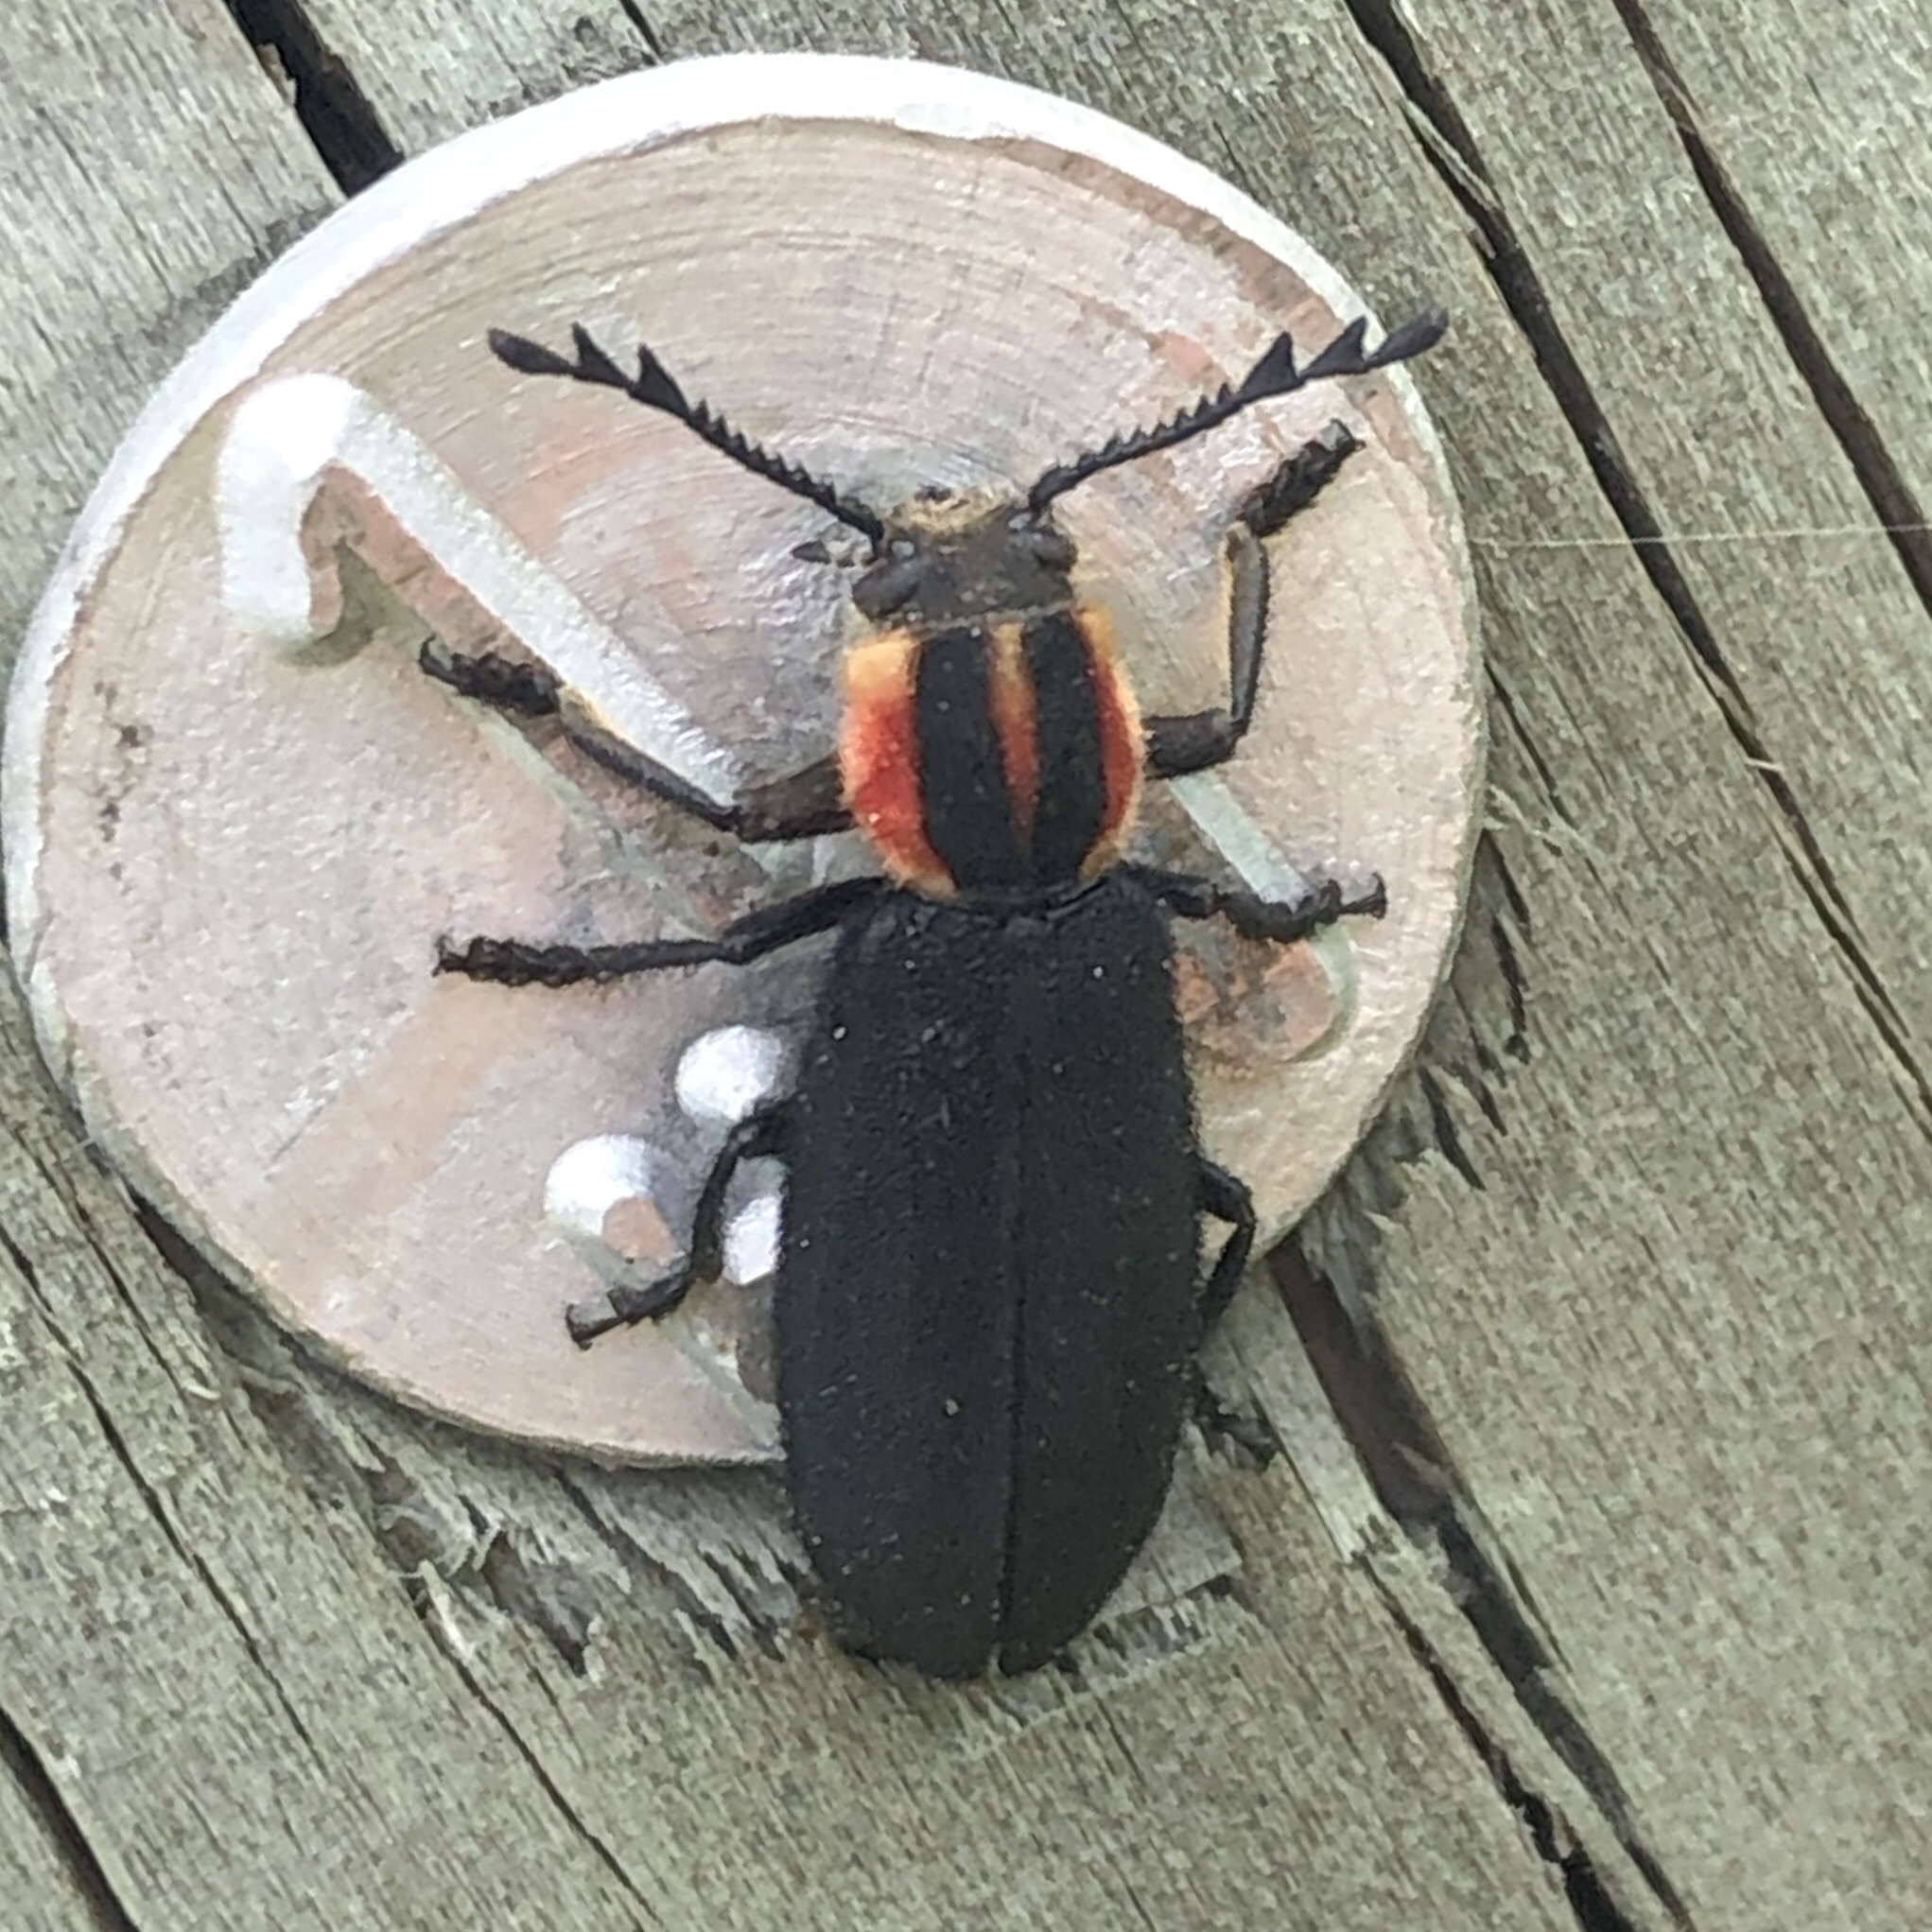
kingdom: Animalia
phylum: Arthropoda
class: Insecta
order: Coleoptera
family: Cleridae
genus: Chariessa
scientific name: Chariessa pilosa
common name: Pilose checkered beetle
